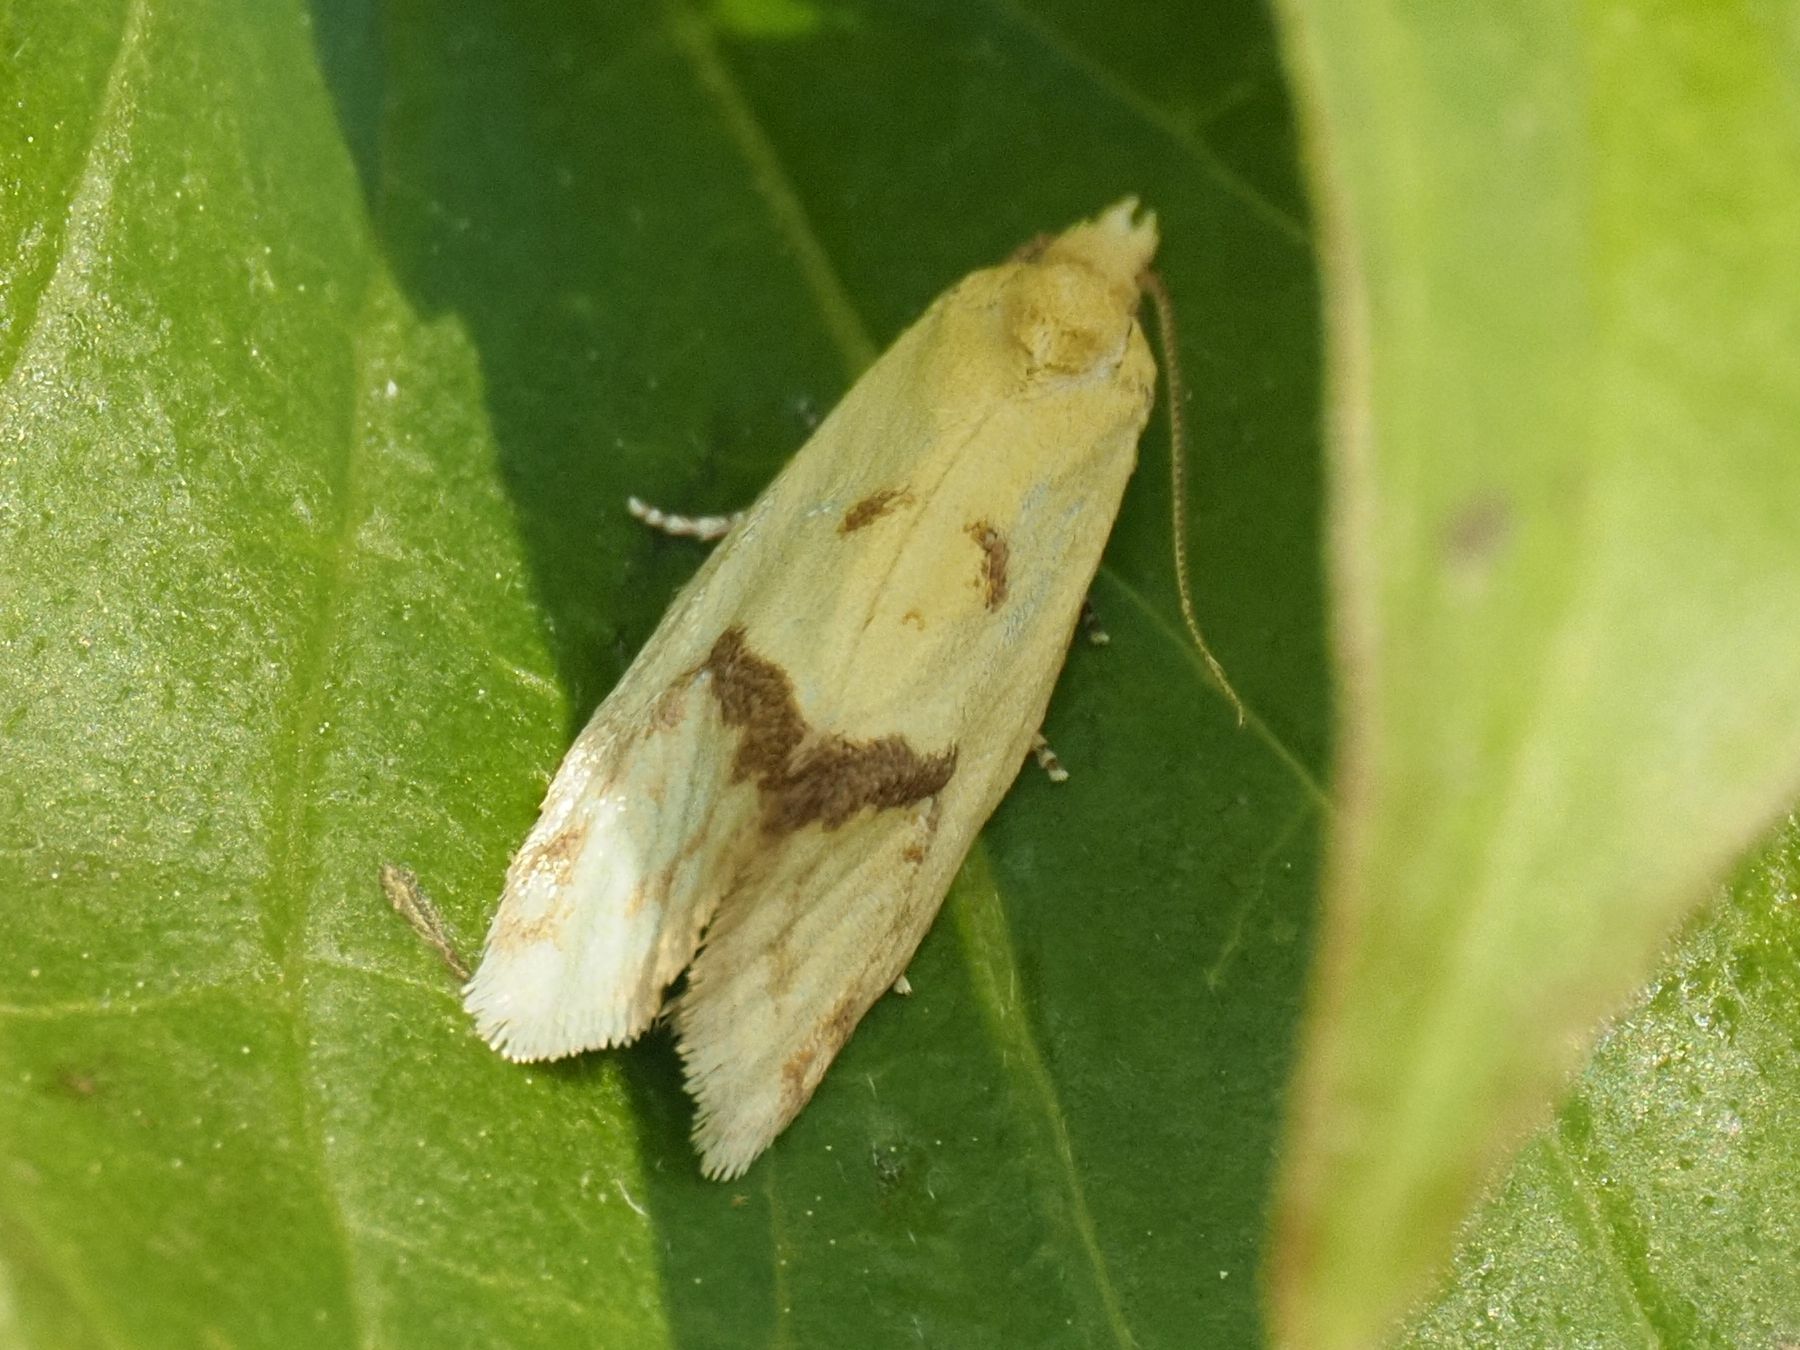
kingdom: Animalia
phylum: Arthropoda
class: Insecta
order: Lepidoptera
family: Tortricidae
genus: Agapeta
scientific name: Agapeta hamana
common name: Common yellow conch
